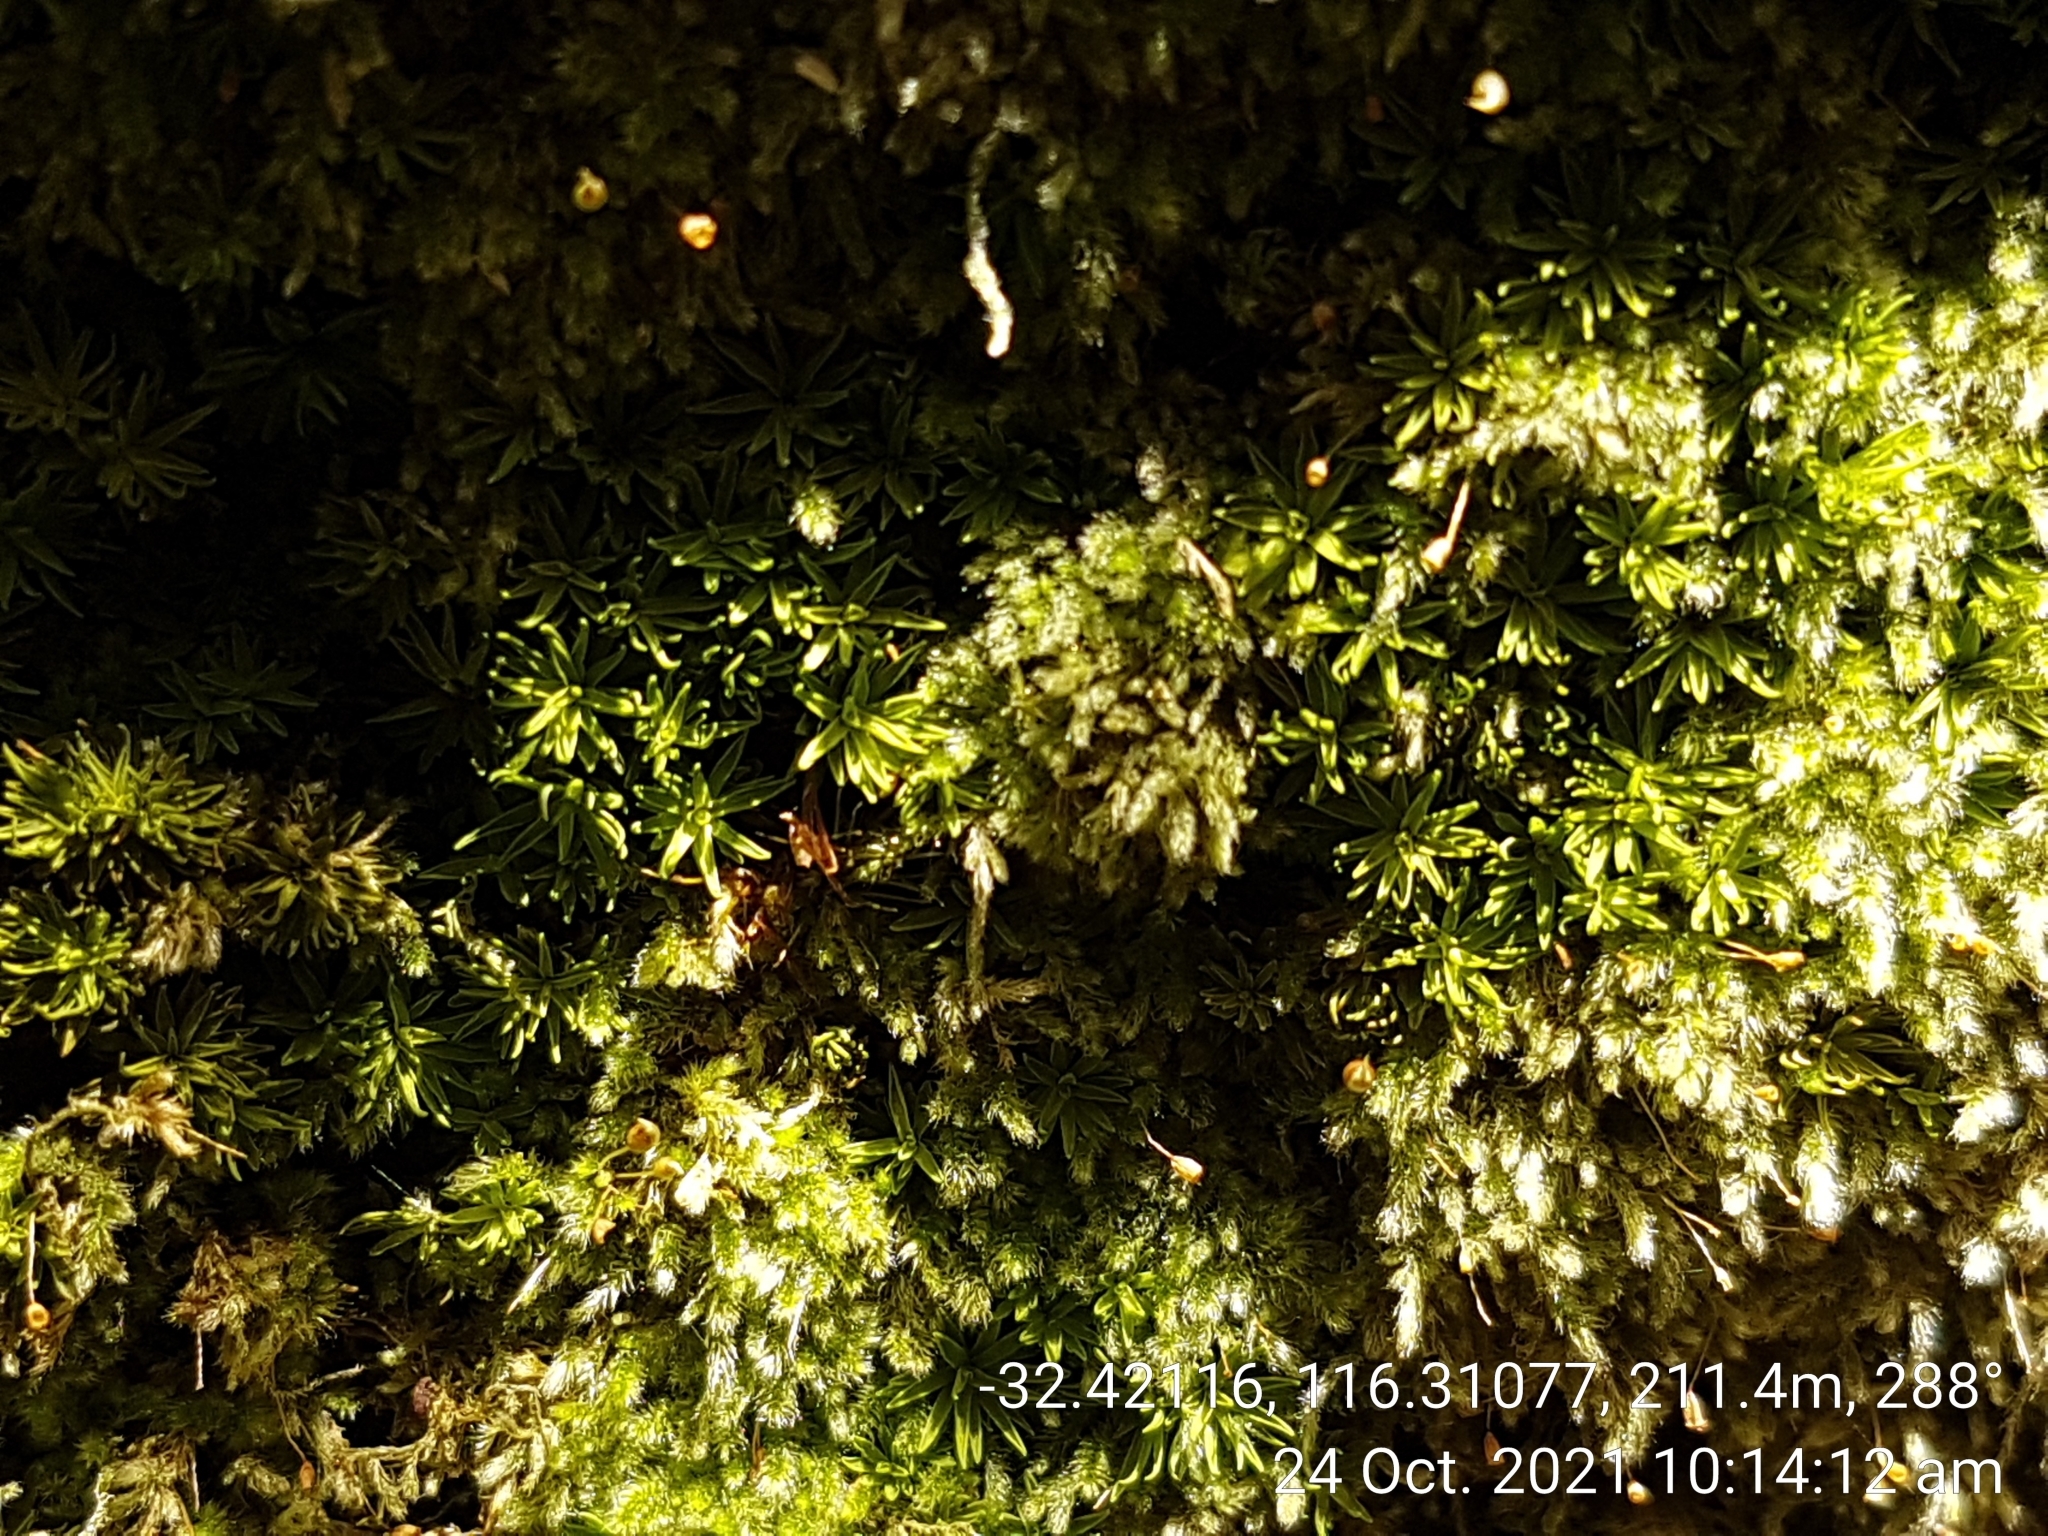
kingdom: Plantae
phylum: Bryophyta
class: Bryopsida
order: Pottiales
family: Pottiaceae
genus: Calymperastrum
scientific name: Calymperastrum latifolium
